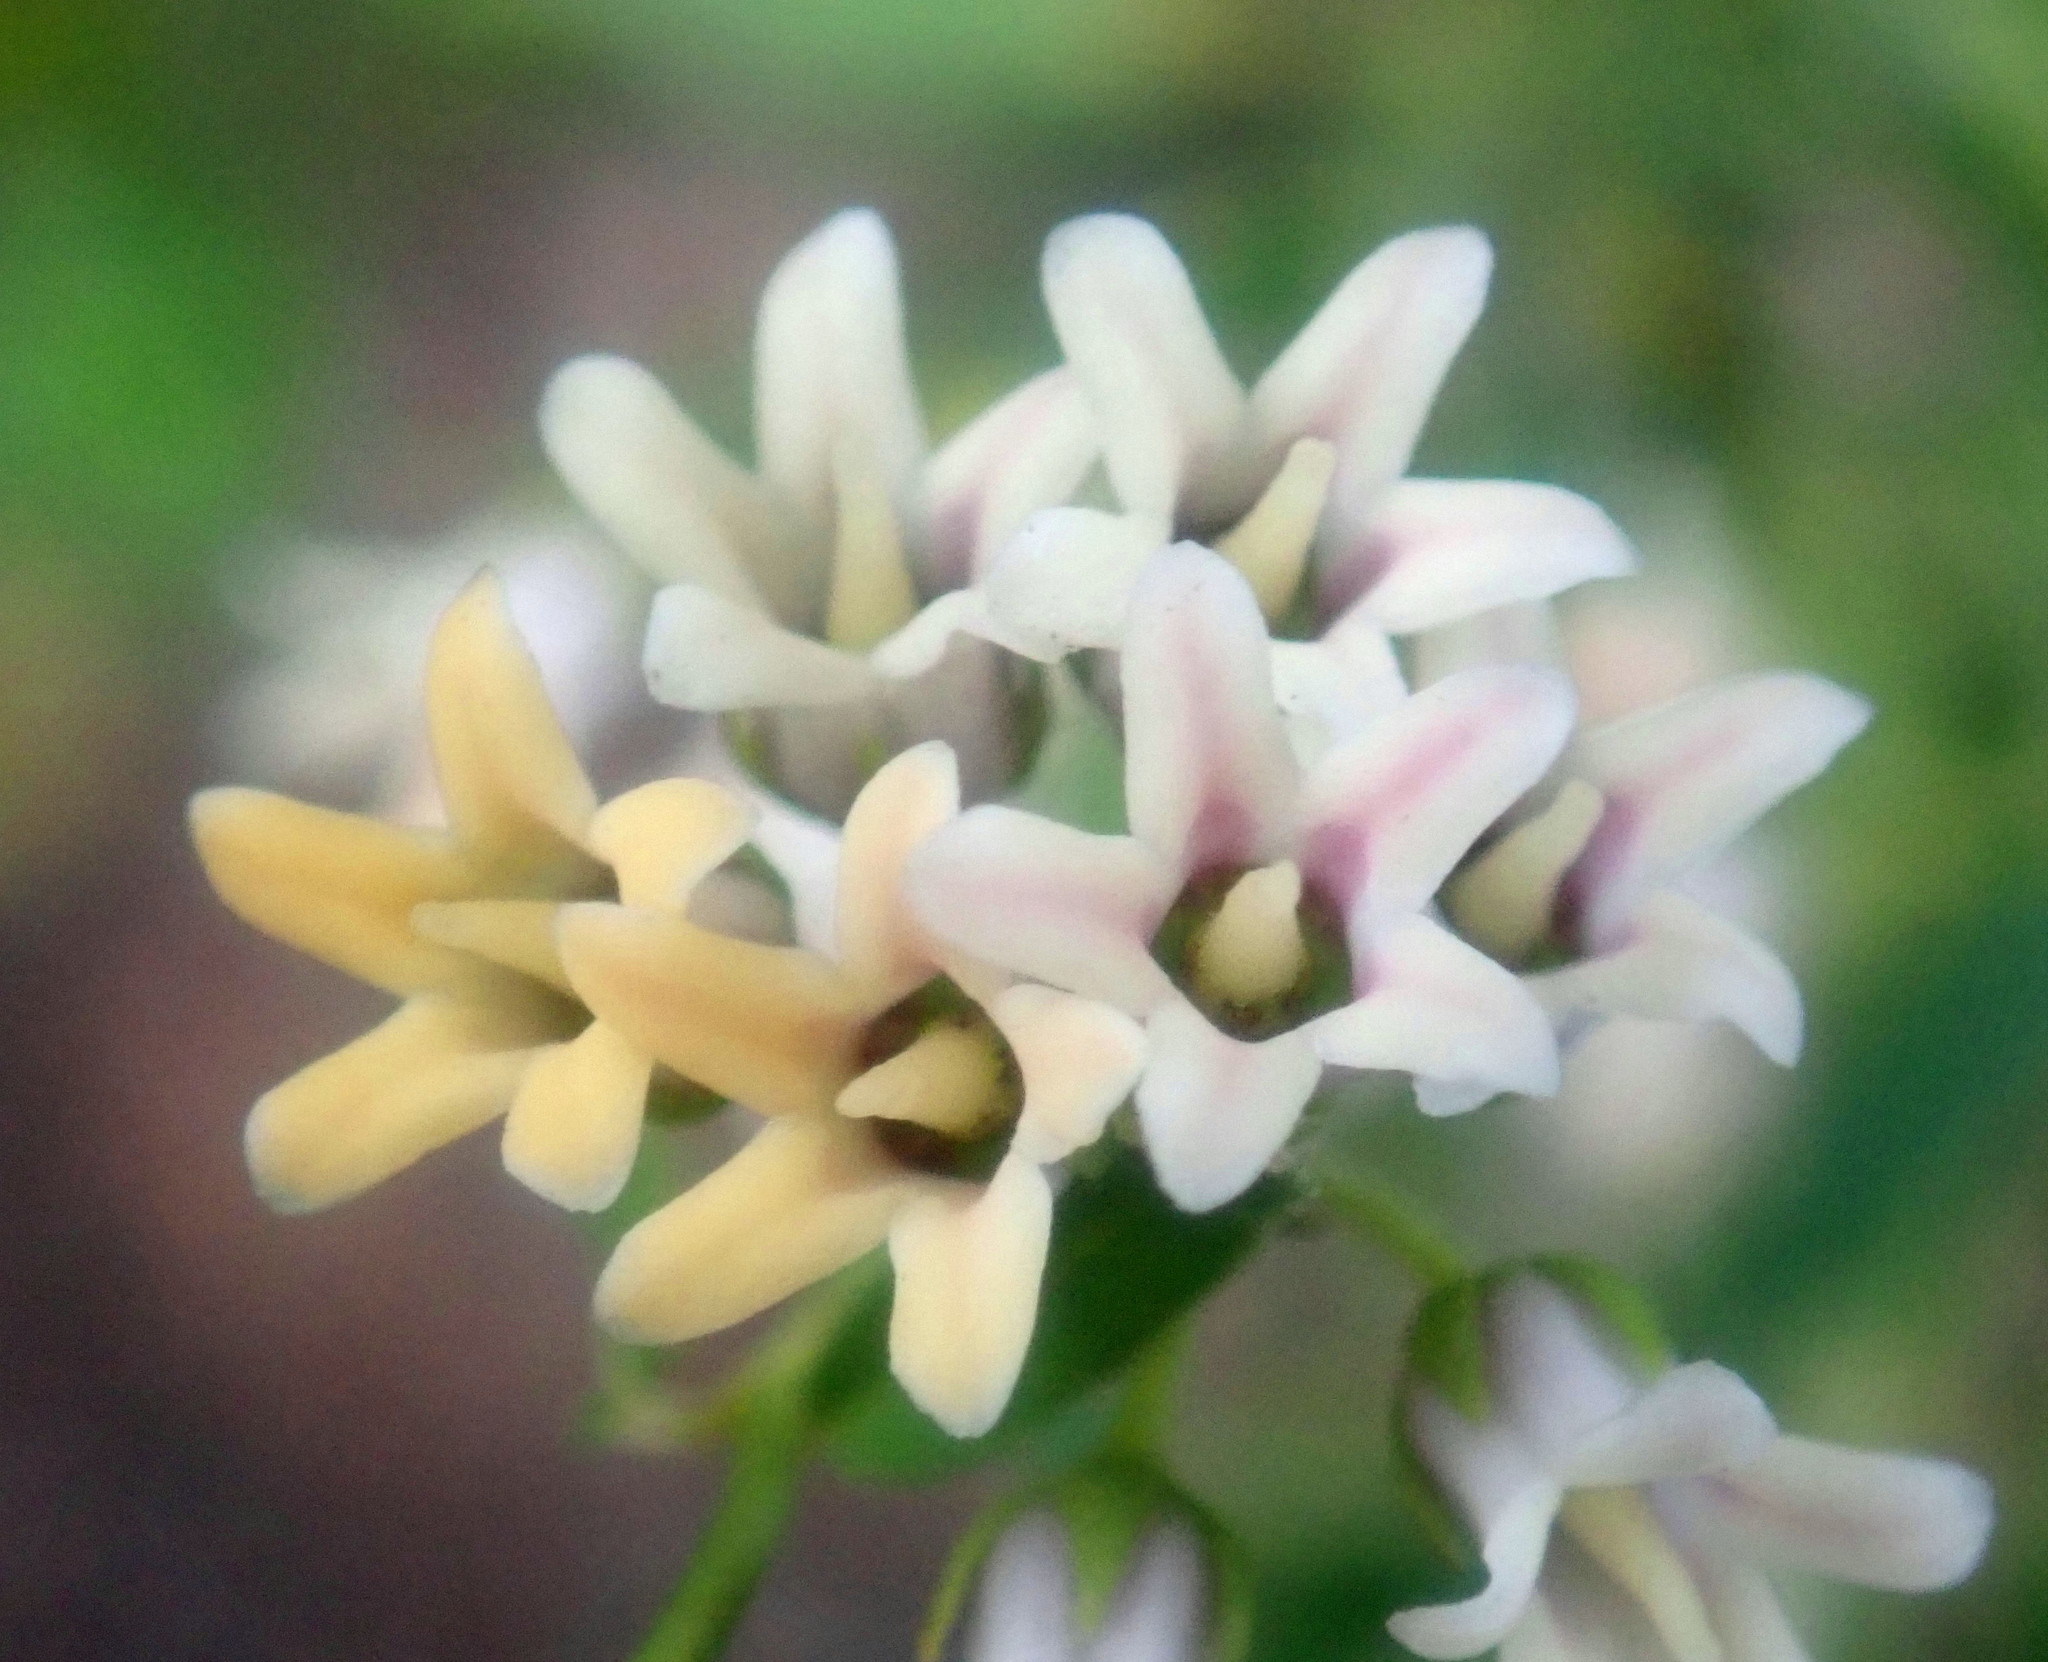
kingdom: Plantae
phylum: Tracheophyta
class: Magnoliopsida
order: Gentianales
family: Apocynaceae
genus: Astephanus
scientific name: Astephanus triflorus
